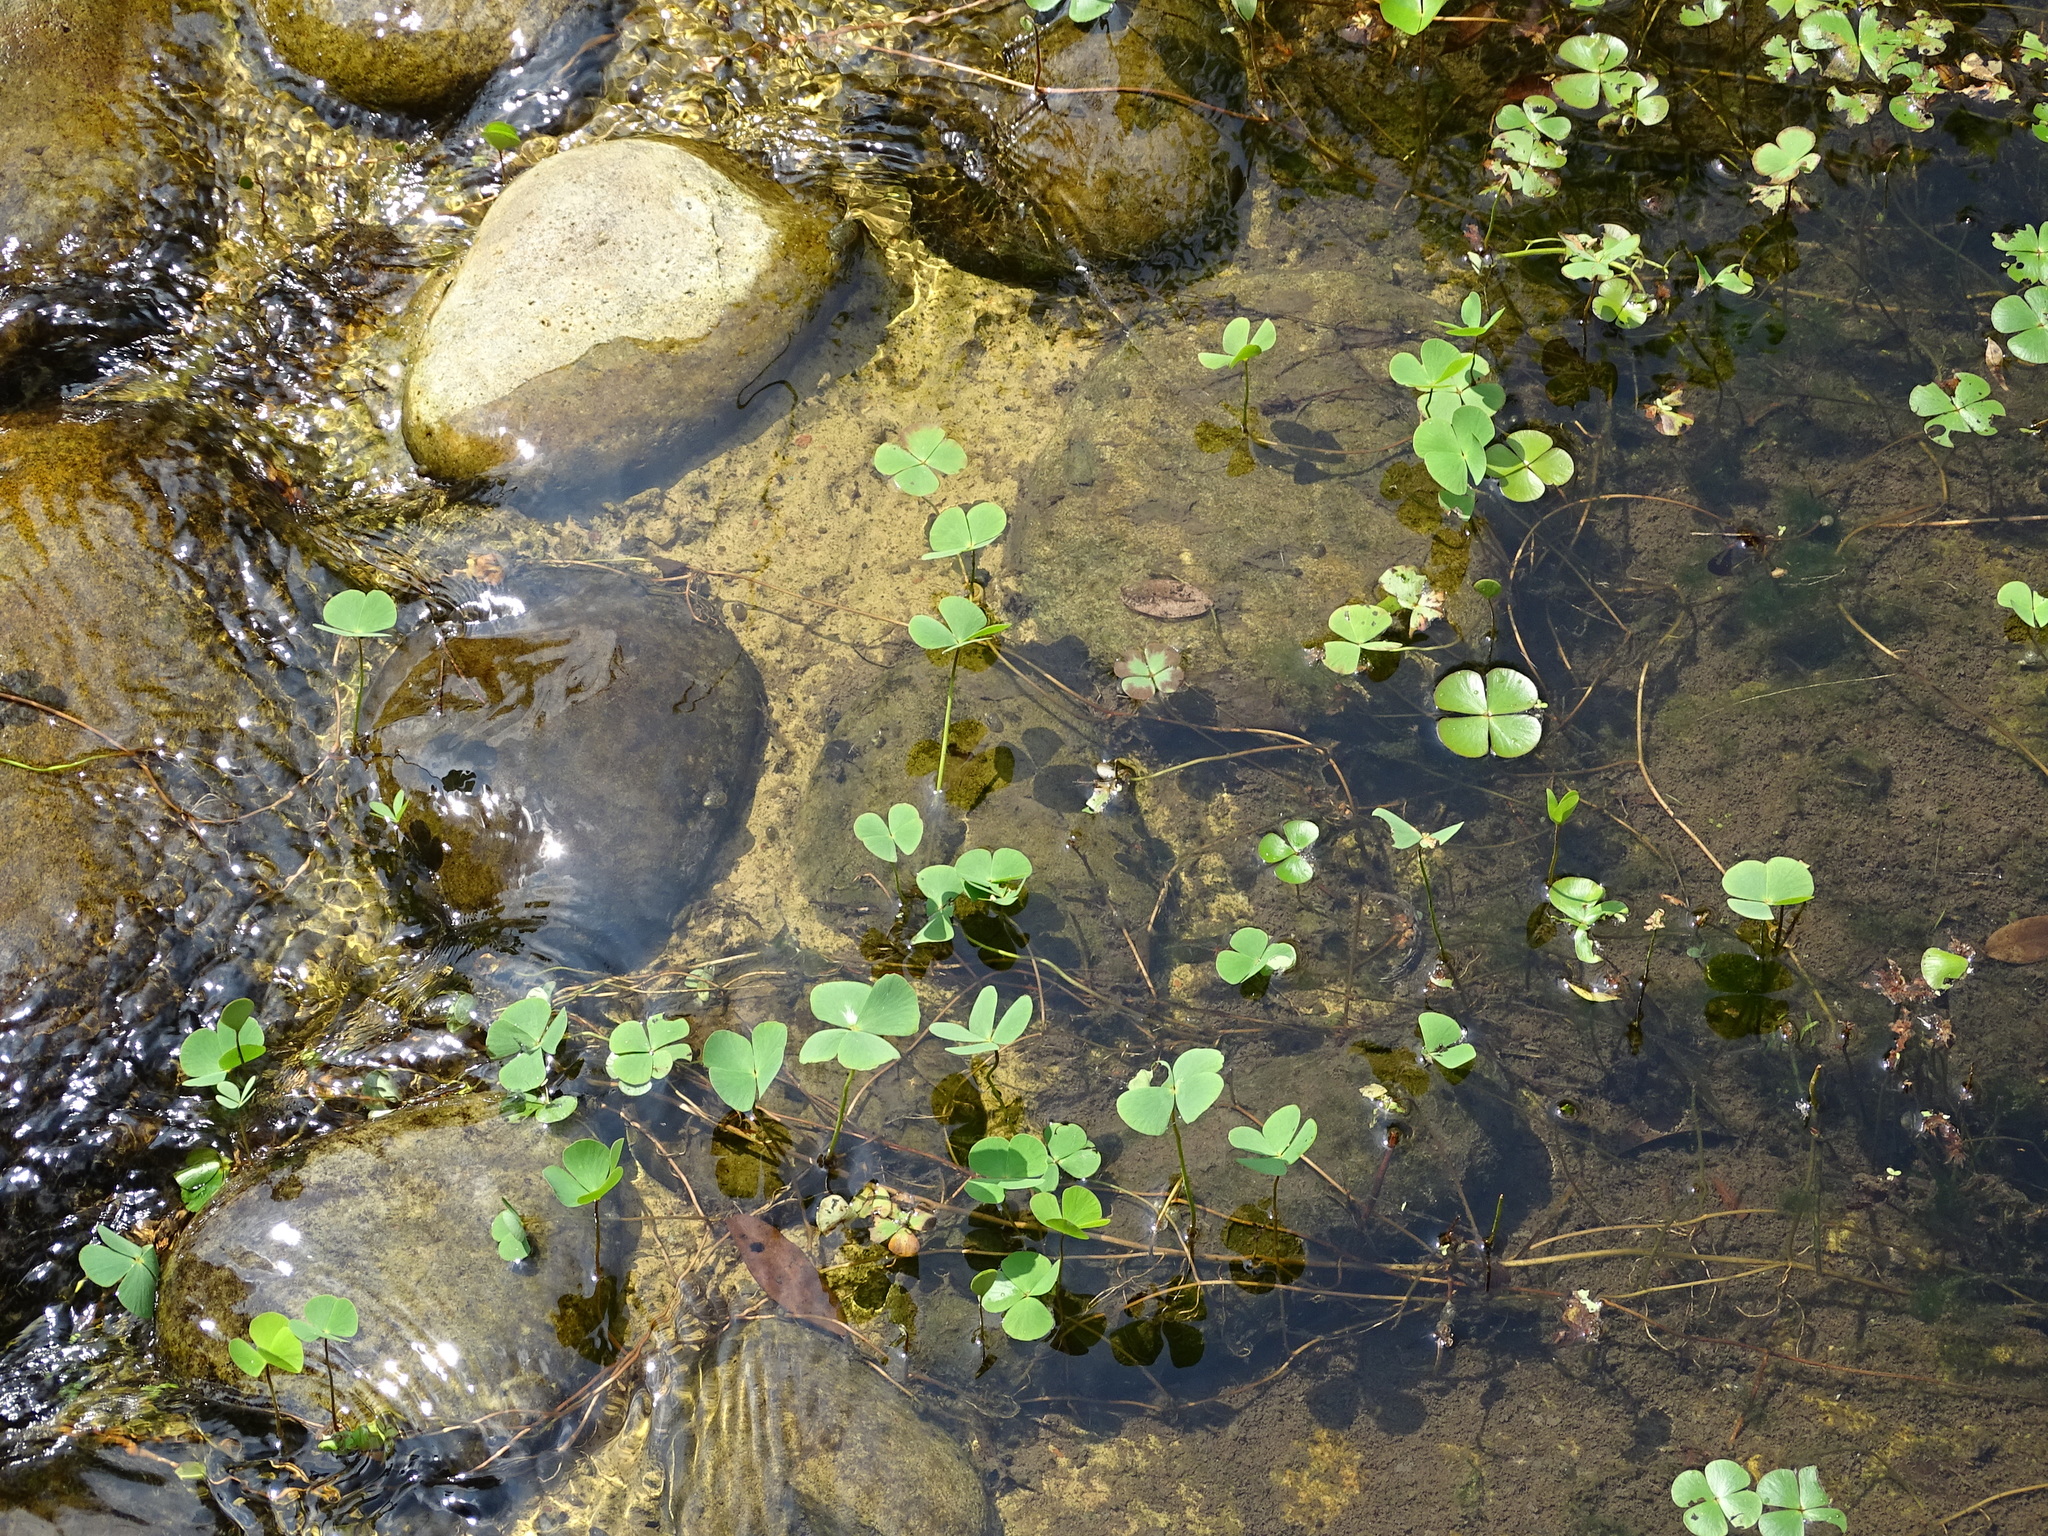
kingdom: Plantae
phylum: Tracheophyta
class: Polypodiopsida
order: Salviniales
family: Marsileaceae
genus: Marsilea
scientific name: Marsilea minuta
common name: Dwarf waterclover
